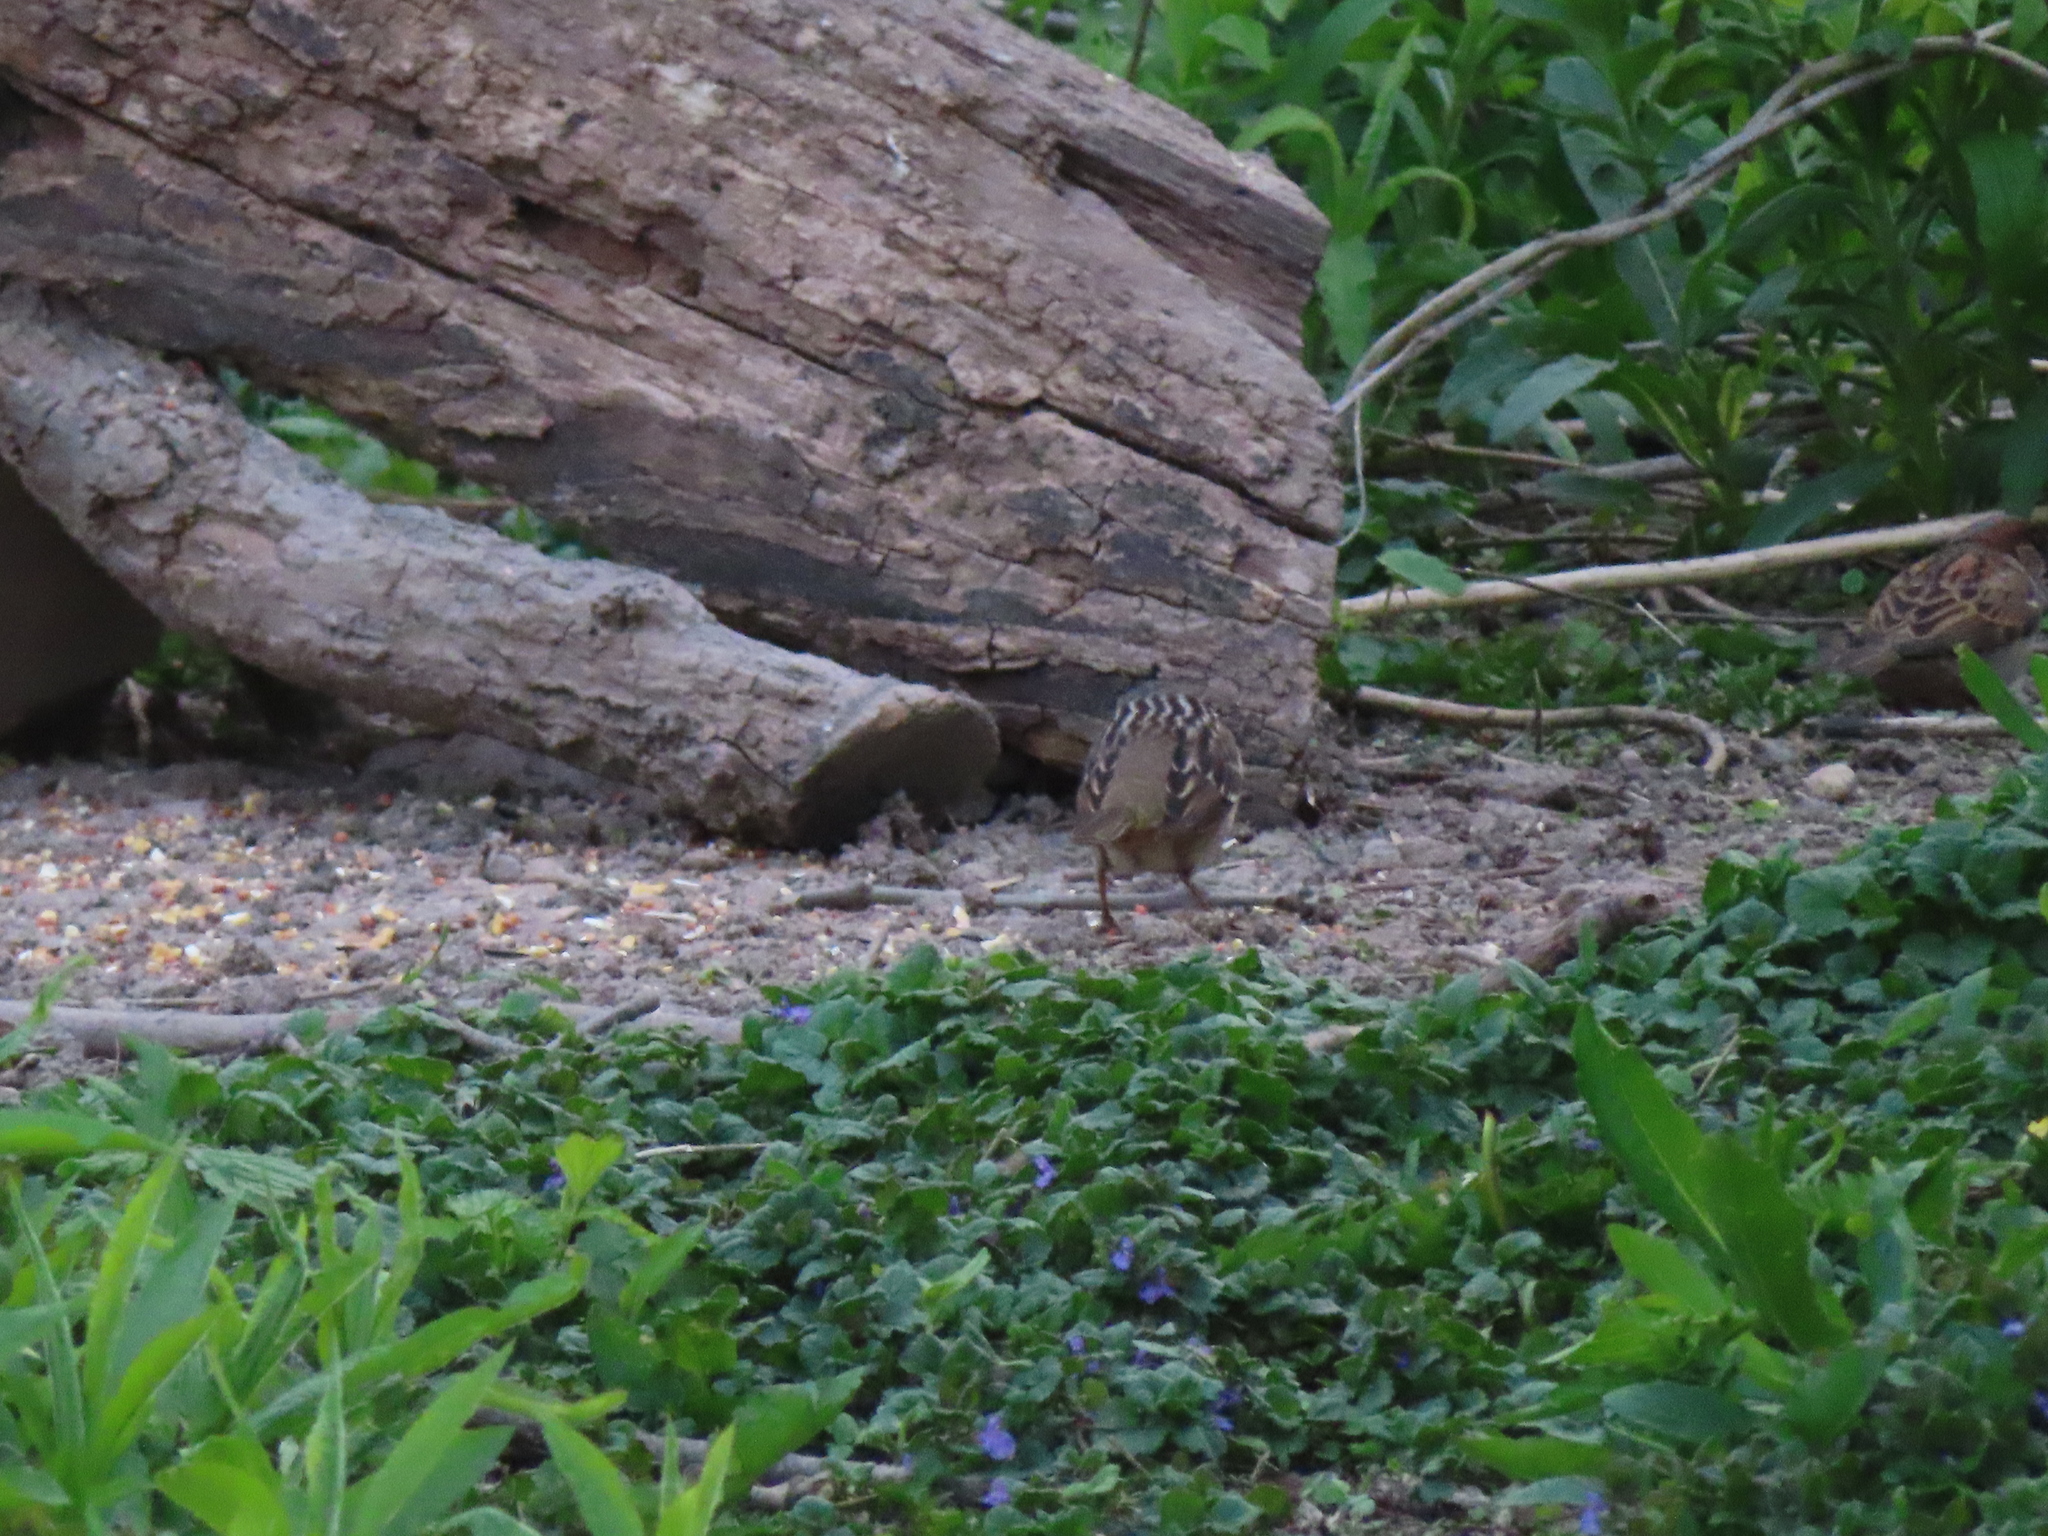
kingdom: Animalia
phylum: Chordata
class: Aves
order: Passeriformes
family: Passerellidae
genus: Zonotrichia
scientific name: Zonotrichia leucophrys
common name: White-crowned sparrow
